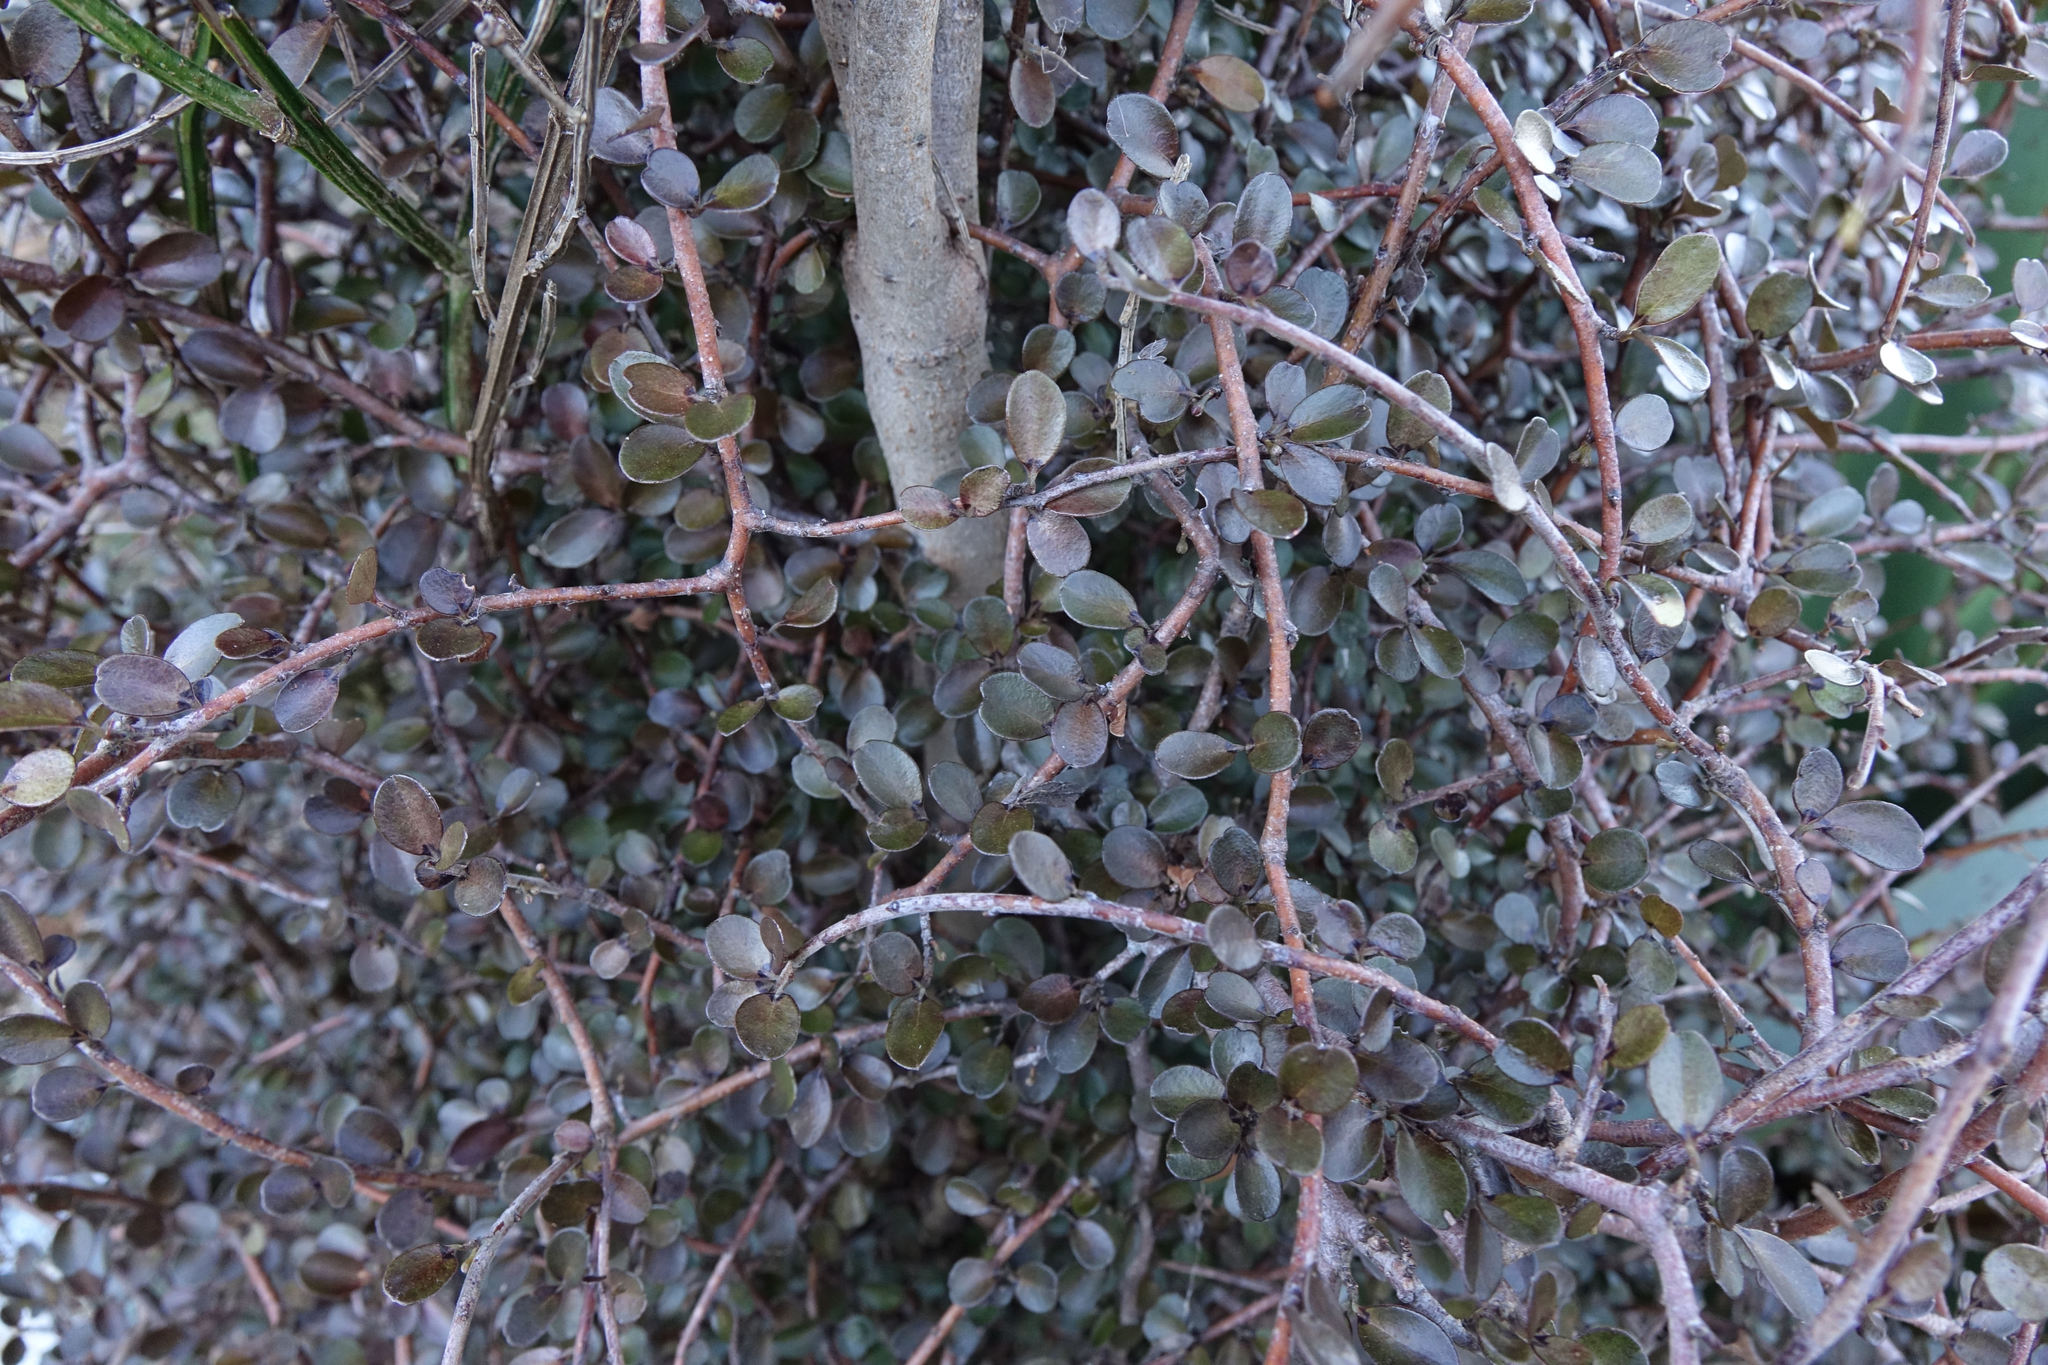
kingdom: Plantae
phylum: Tracheophyta
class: Magnoliopsida
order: Ericales
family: Primulaceae
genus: Myrsine
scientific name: Myrsine divaricata
